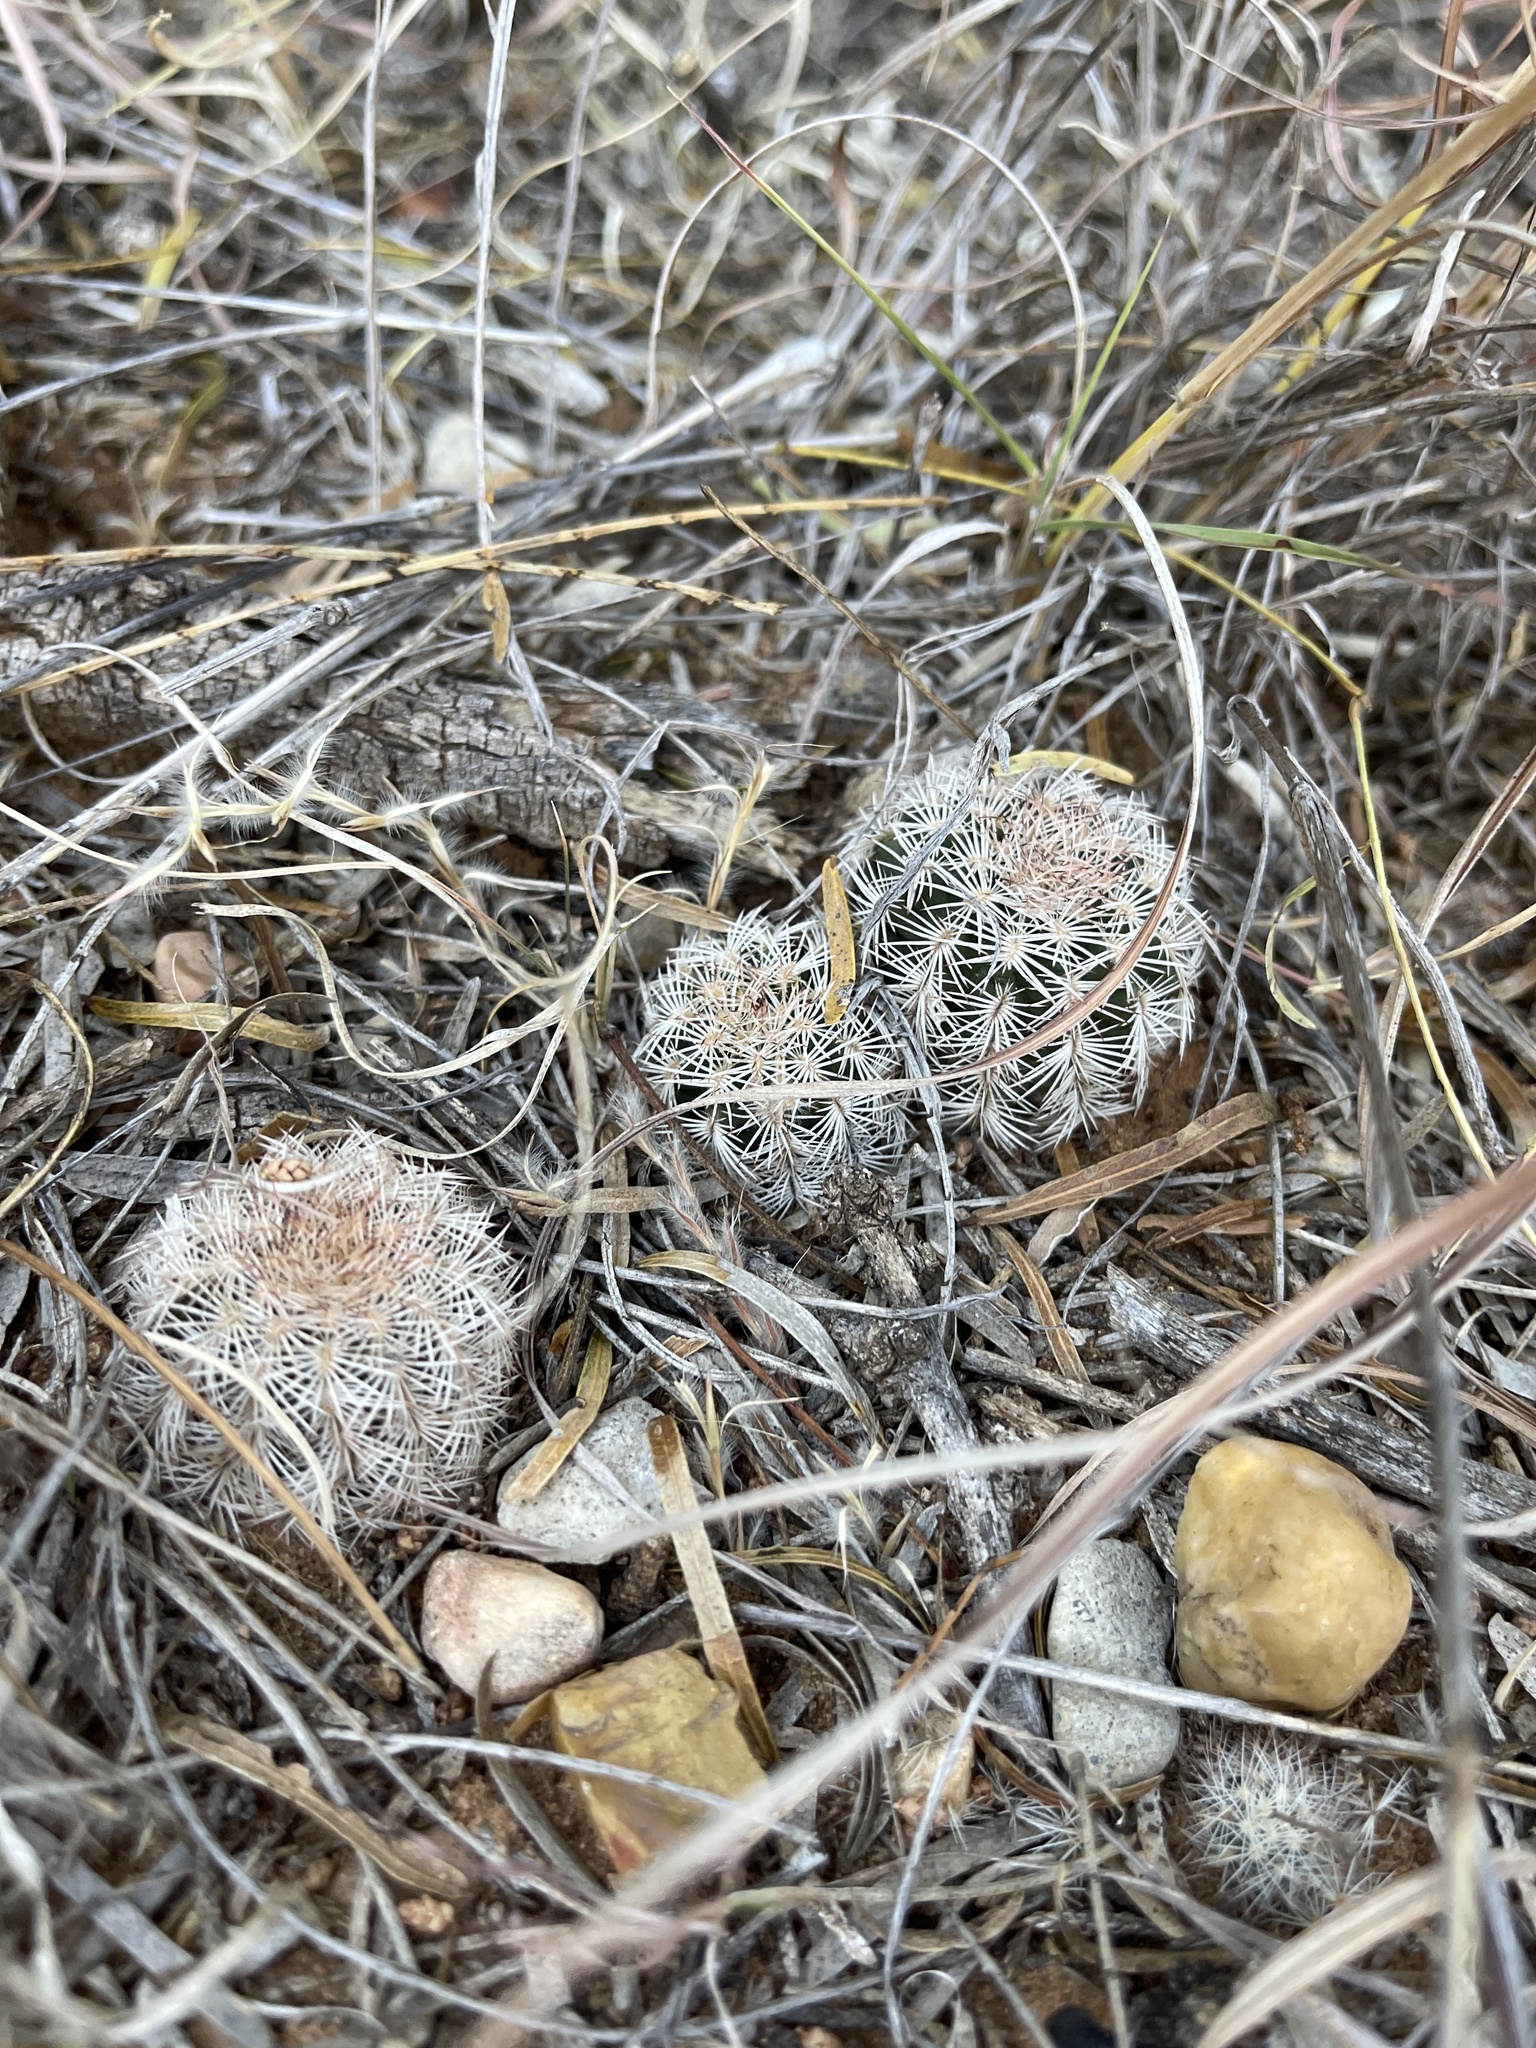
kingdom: Plantae
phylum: Tracheophyta
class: Magnoliopsida
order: Caryophyllales
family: Cactaceae
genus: Echinocereus
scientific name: Echinocereus reichenbachii
